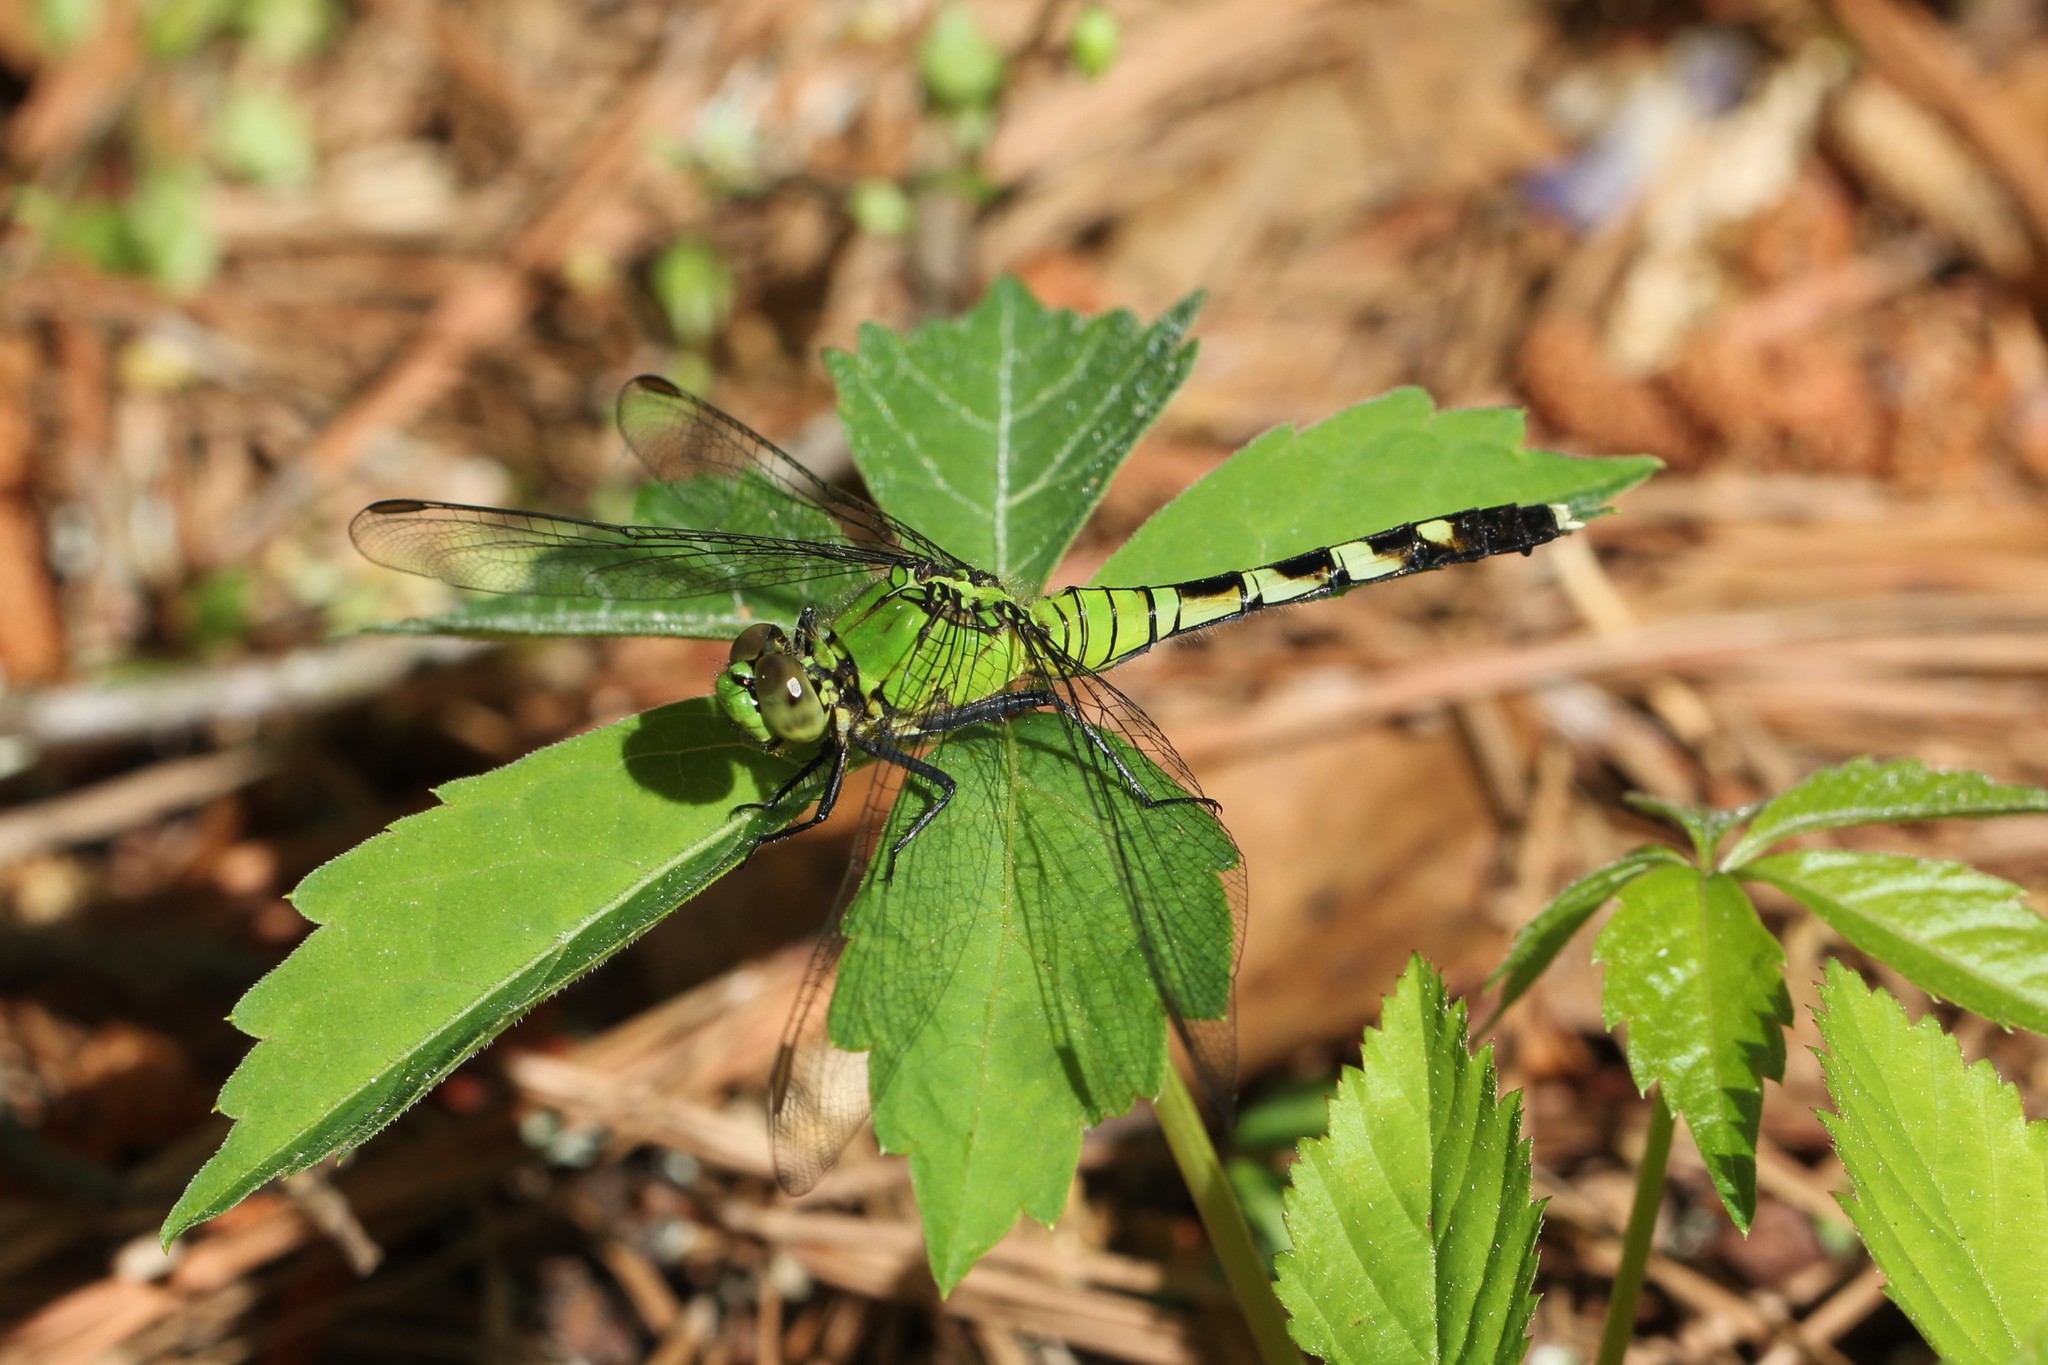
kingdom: Animalia
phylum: Arthropoda
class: Insecta
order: Odonata
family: Libellulidae
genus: Erythemis
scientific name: Erythemis simplicicollis
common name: Eastern pondhawk
